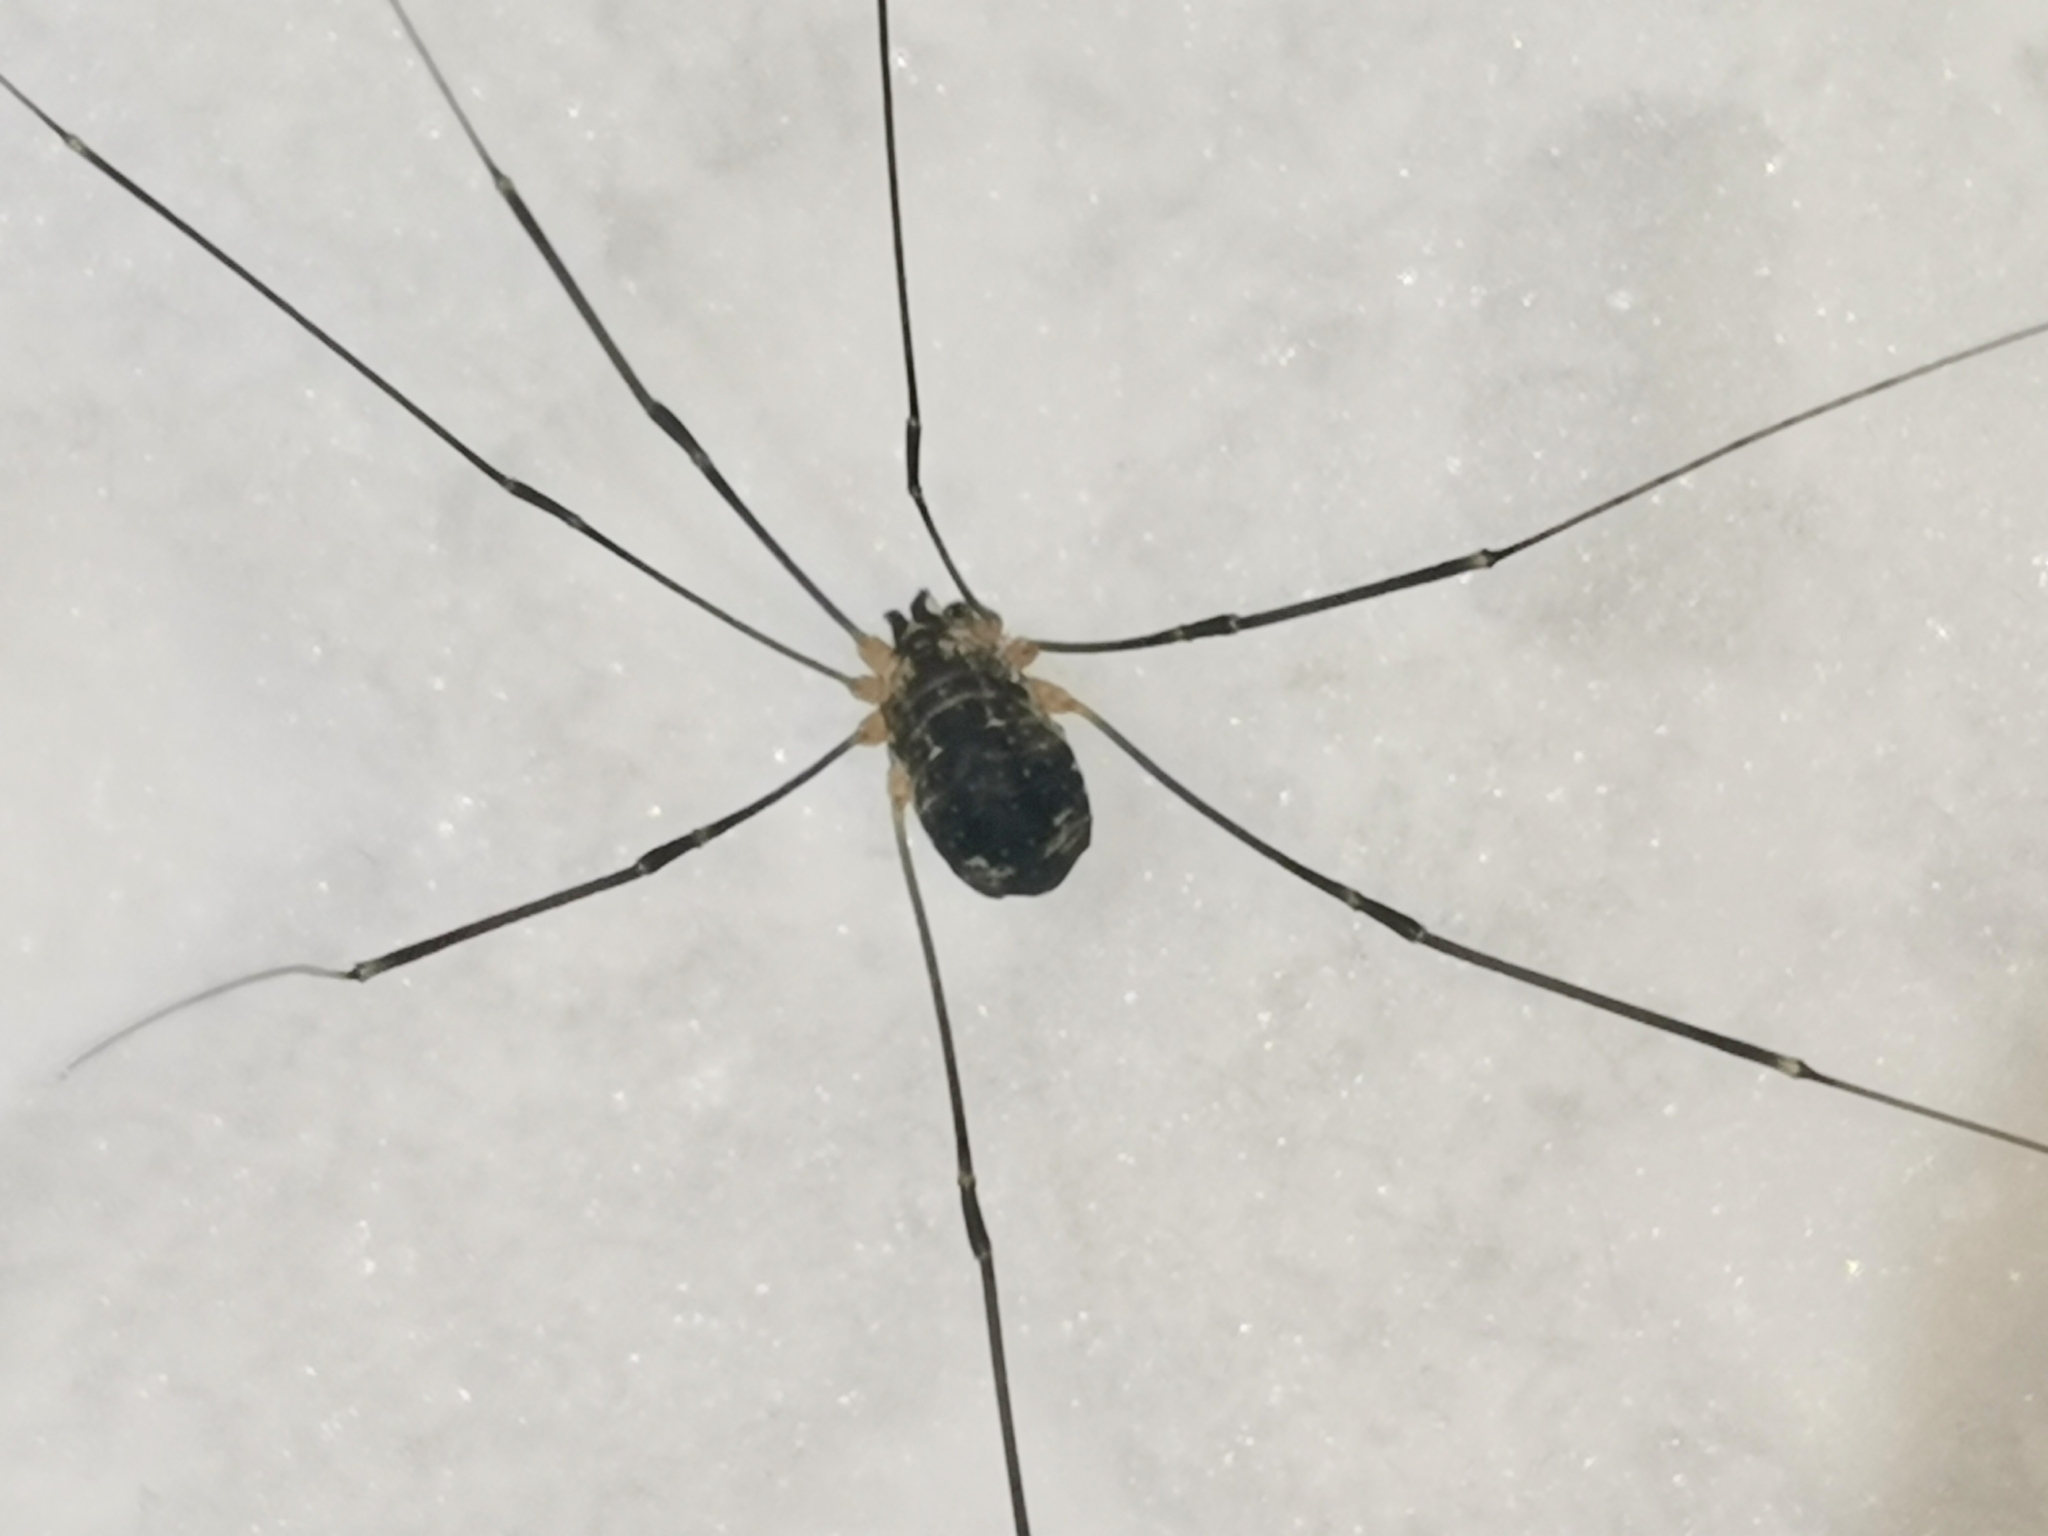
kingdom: Animalia
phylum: Arthropoda
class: Arachnida
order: Opiliones
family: Sclerosomatidae
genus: Leiobunum
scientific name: Leiobunum gracile
